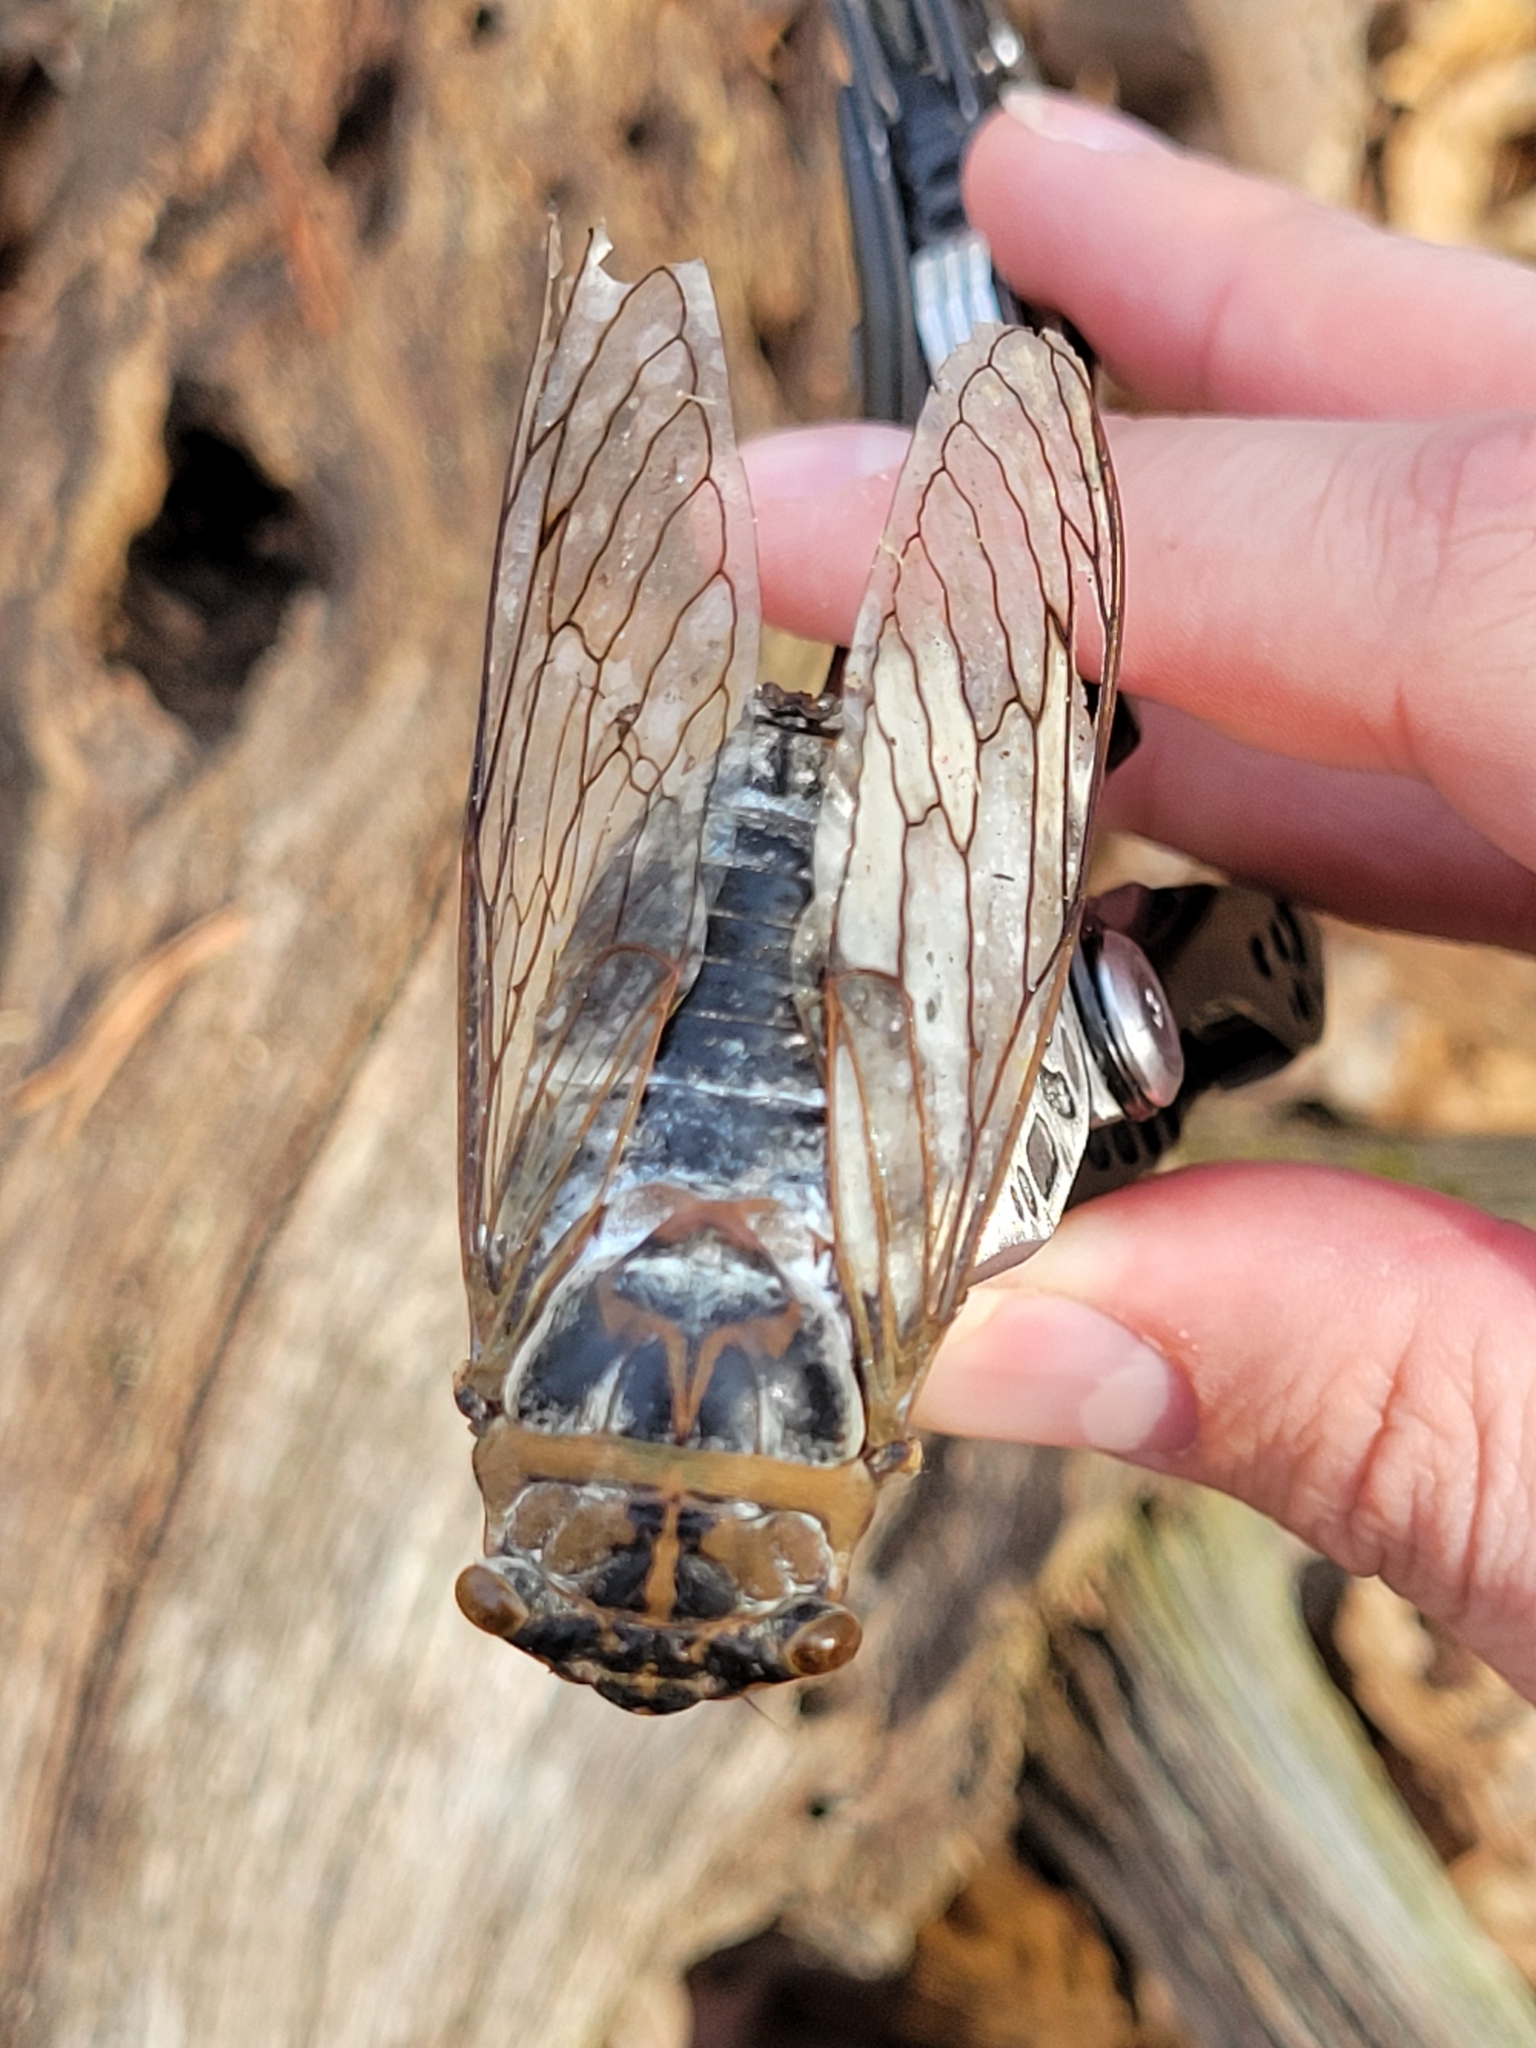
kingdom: Animalia
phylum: Arthropoda
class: Insecta
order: Hemiptera
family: Cicadidae
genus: Diceroprocta
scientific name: Diceroprocta grossa
